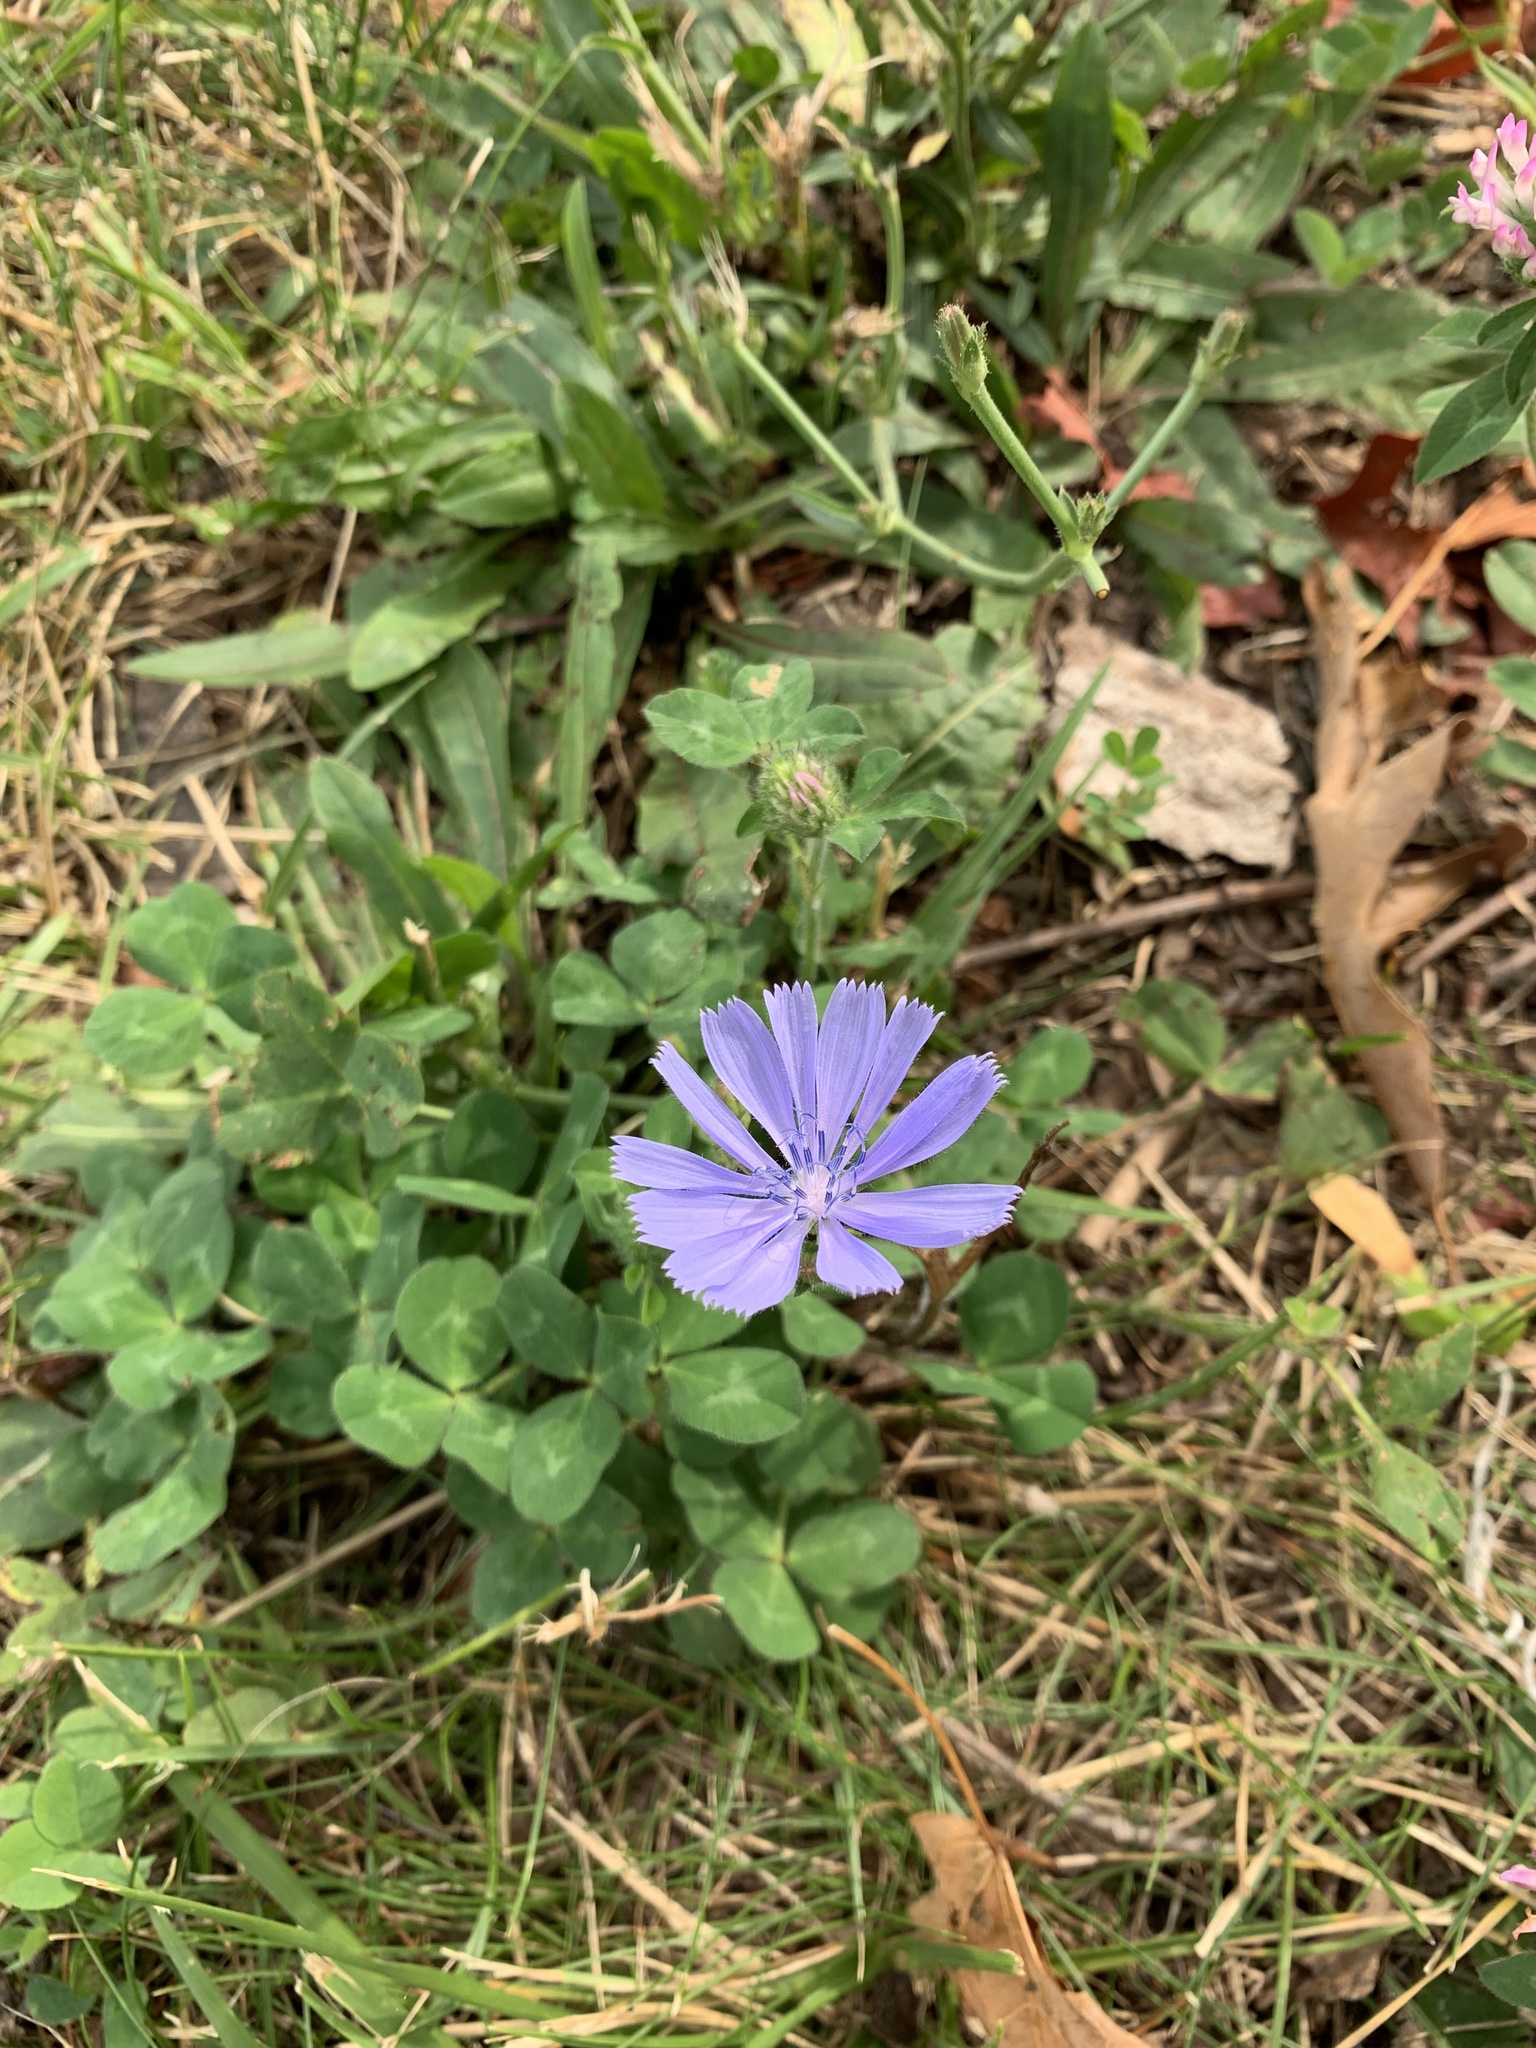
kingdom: Plantae
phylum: Tracheophyta
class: Magnoliopsida
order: Asterales
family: Asteraceae
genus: Cichorium
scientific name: Cichorium intybus
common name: Chicory
